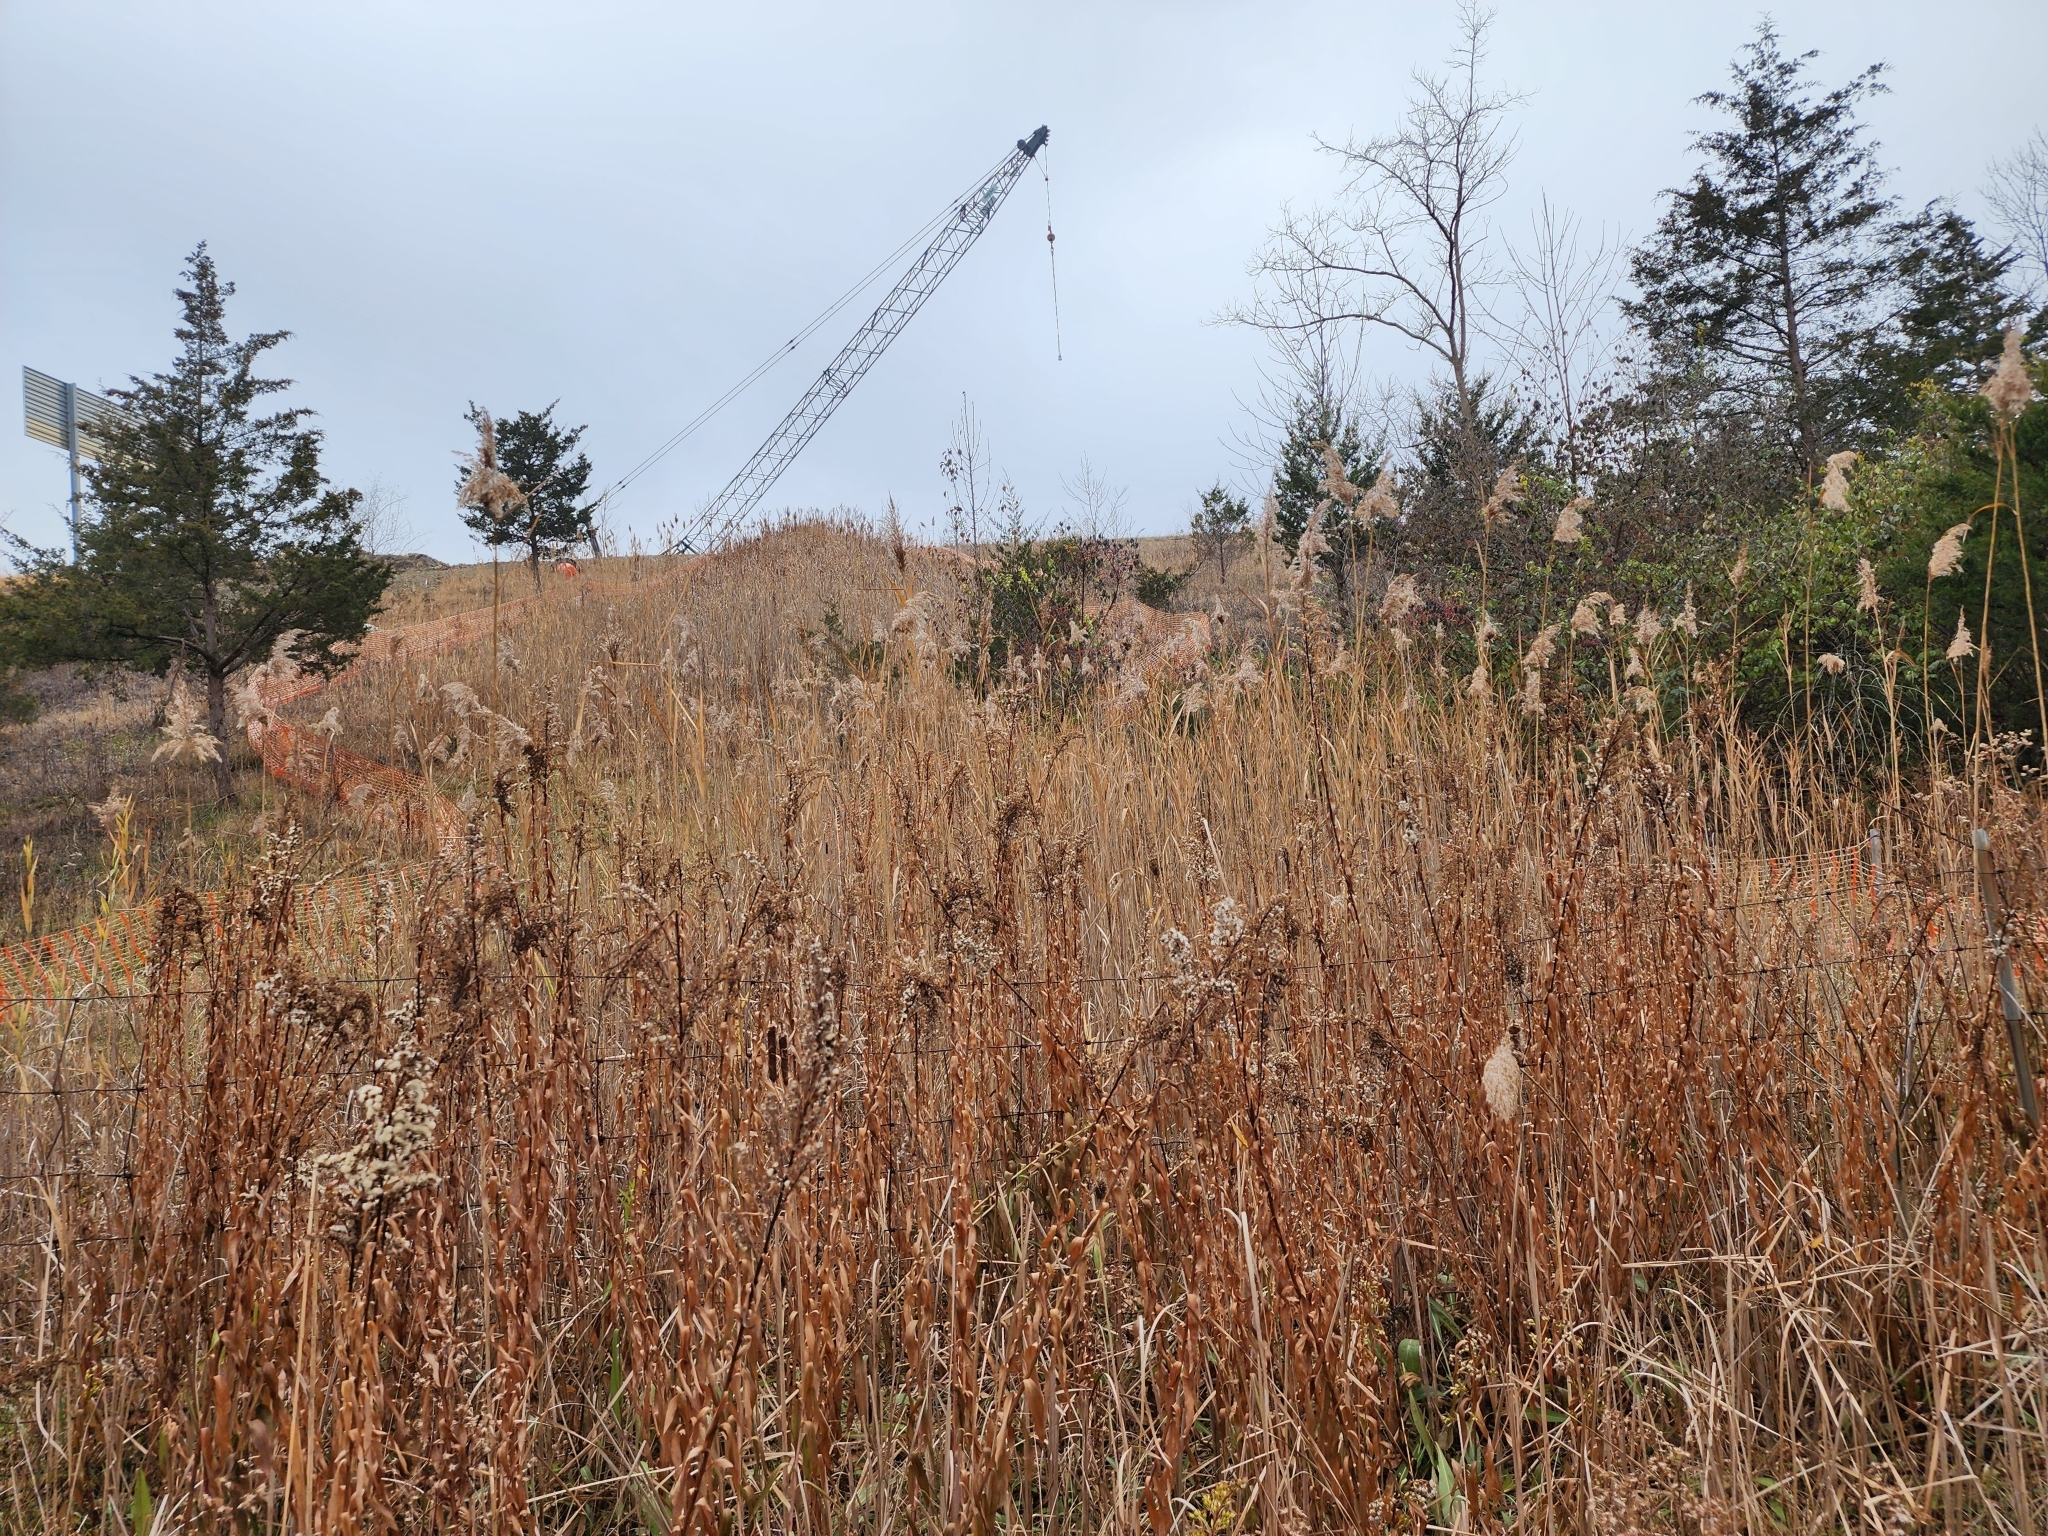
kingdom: Plantae
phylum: Tracheophyta
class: Liliopsida
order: Poales
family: Poaceae
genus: Phragmites
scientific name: Phragmites australis
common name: Common reed
